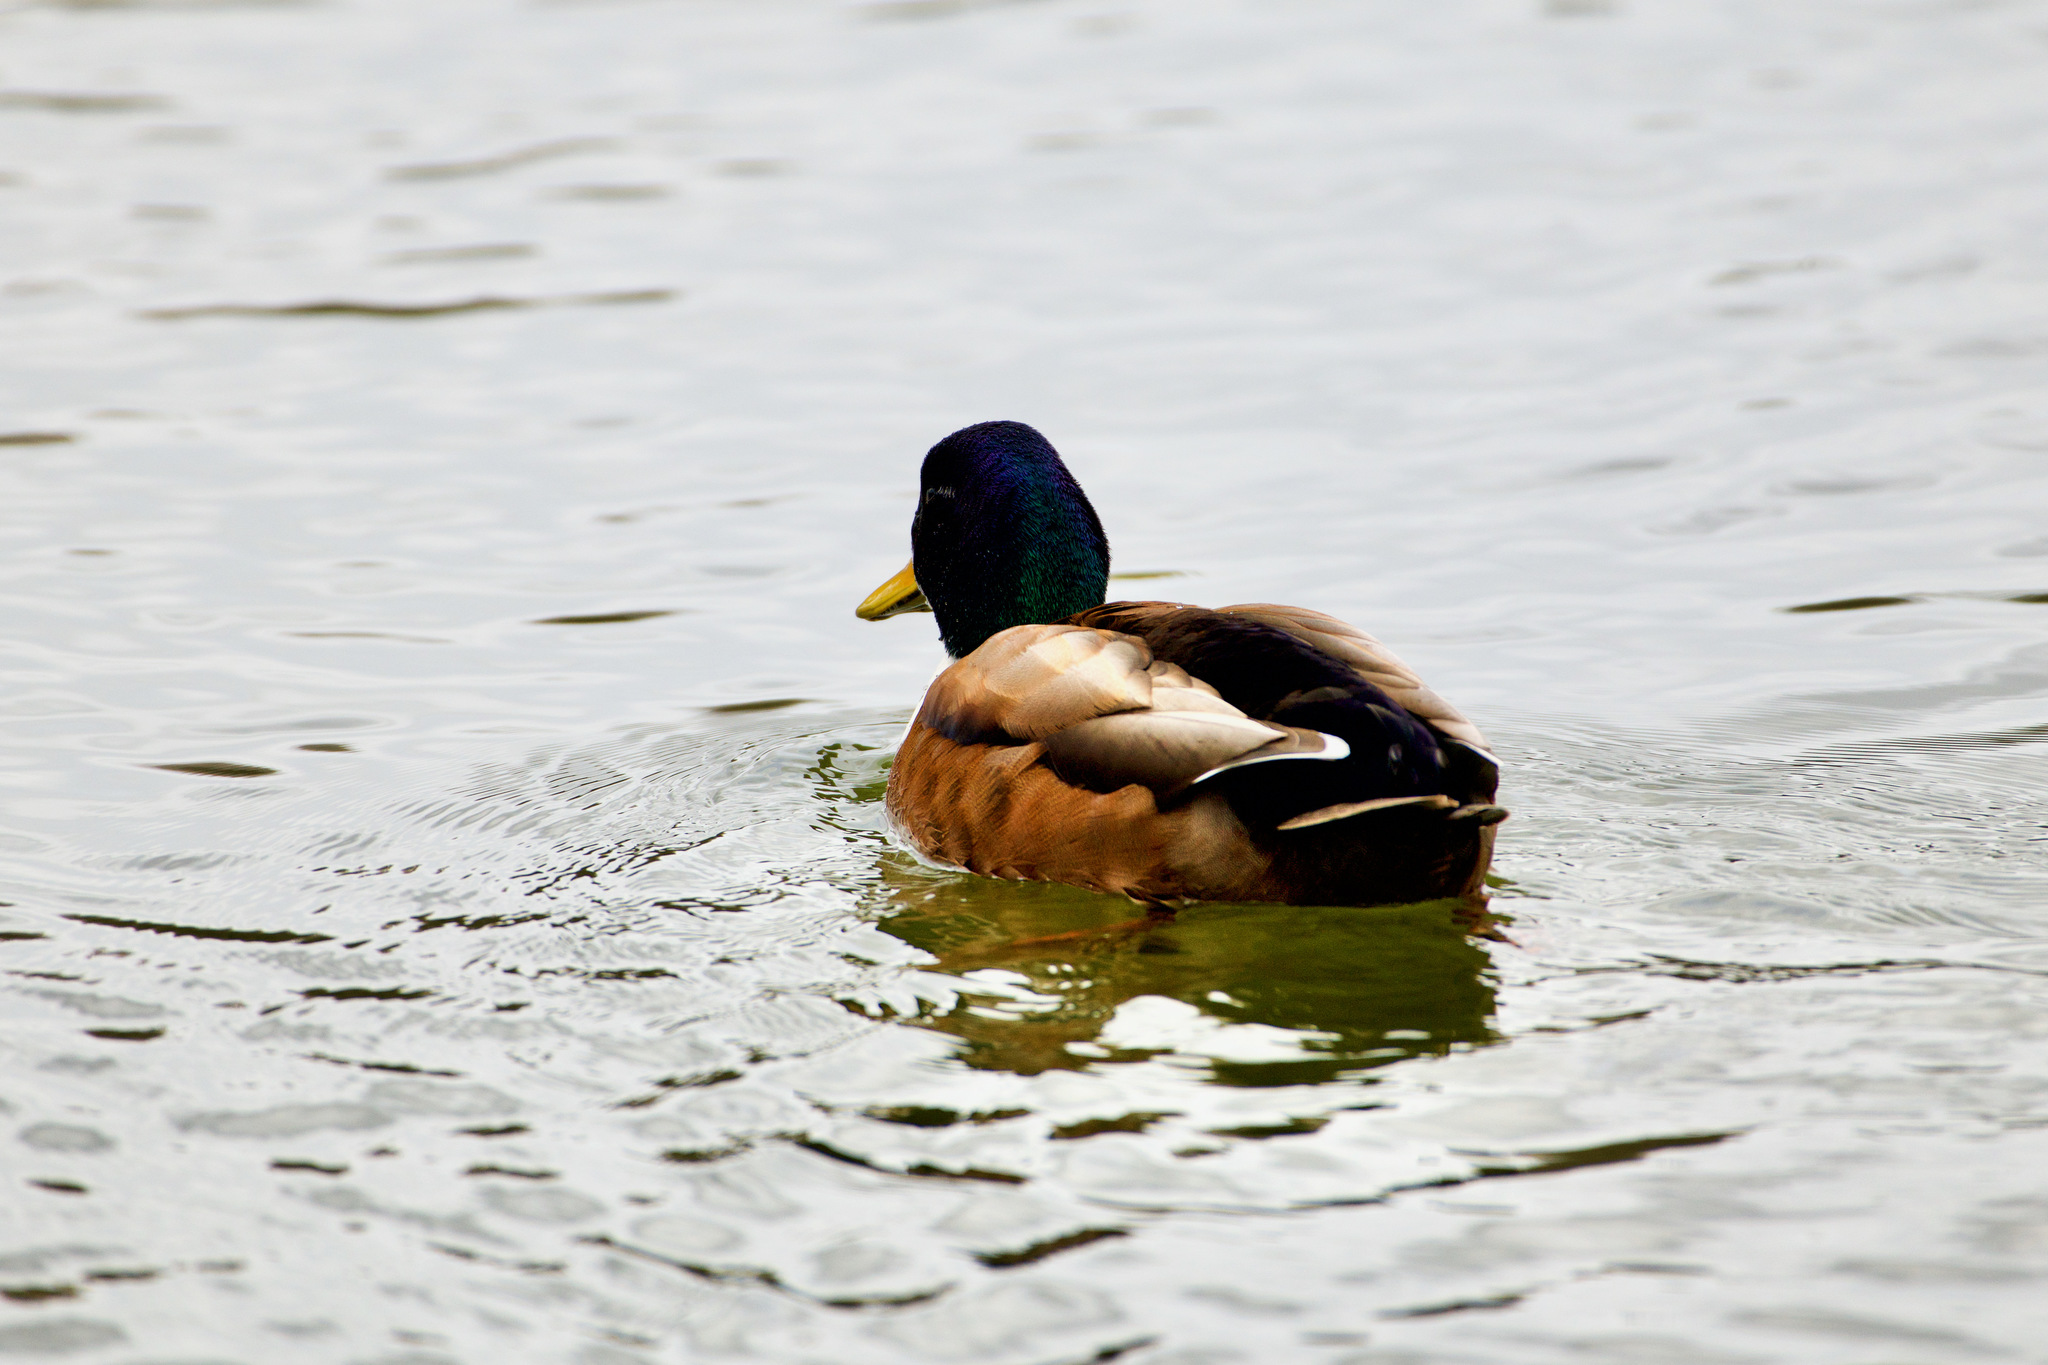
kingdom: Animalia
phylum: Chordata
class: Aves
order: Anseriformes
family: Anatidae
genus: Anas
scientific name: Anas platyrhynchos
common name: Mallard
